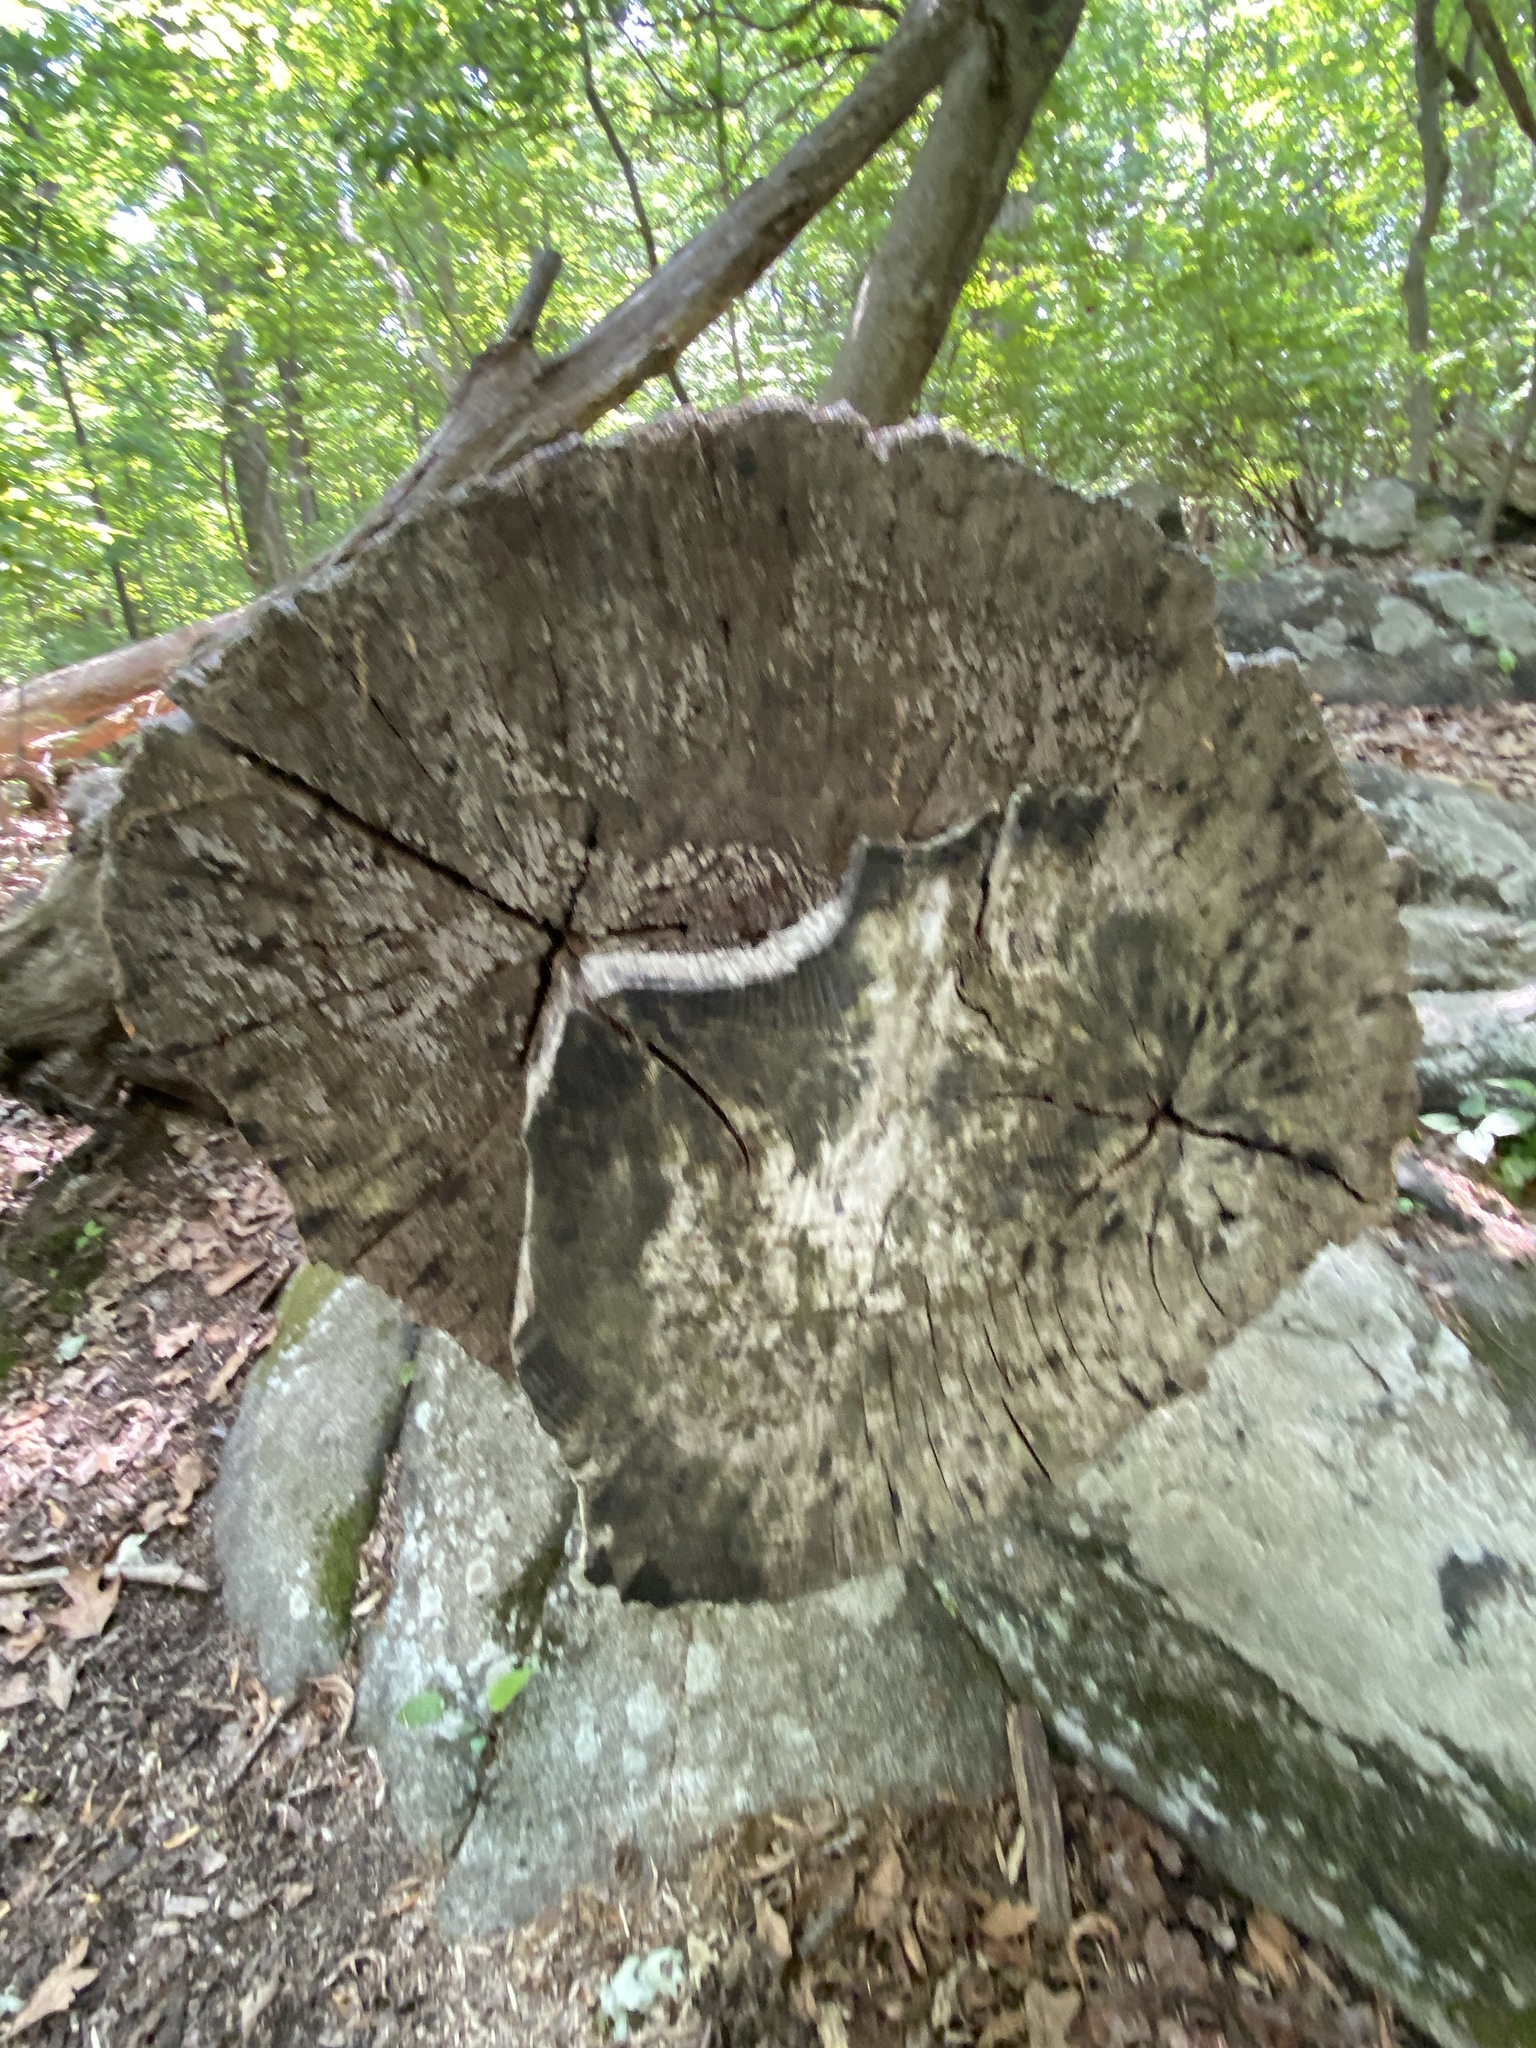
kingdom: Fungi
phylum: Basidiomycota
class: Agaricomycetes
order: Russulales
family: Stereaceae
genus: Xylobolus
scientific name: Xylobolus frustulatus
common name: Ceramic parchment
